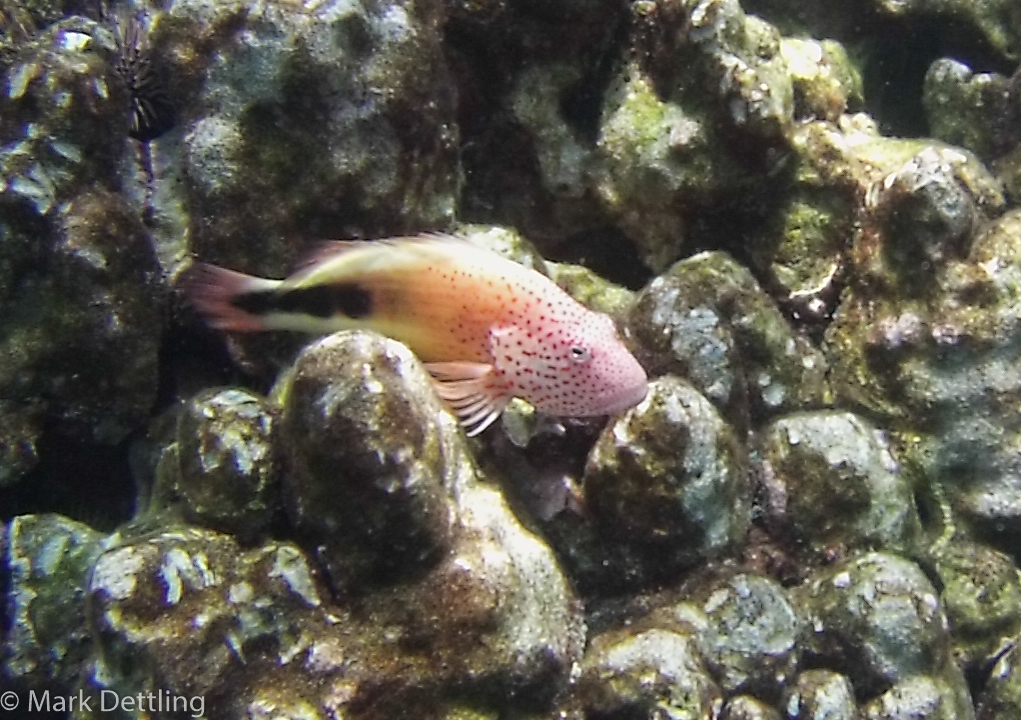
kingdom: Animalia
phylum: Chordata
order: Perciformes
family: Cirrhitidae
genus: Paracirrhites
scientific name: Paracirrhites forsteri
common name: Freckled hawkfish
